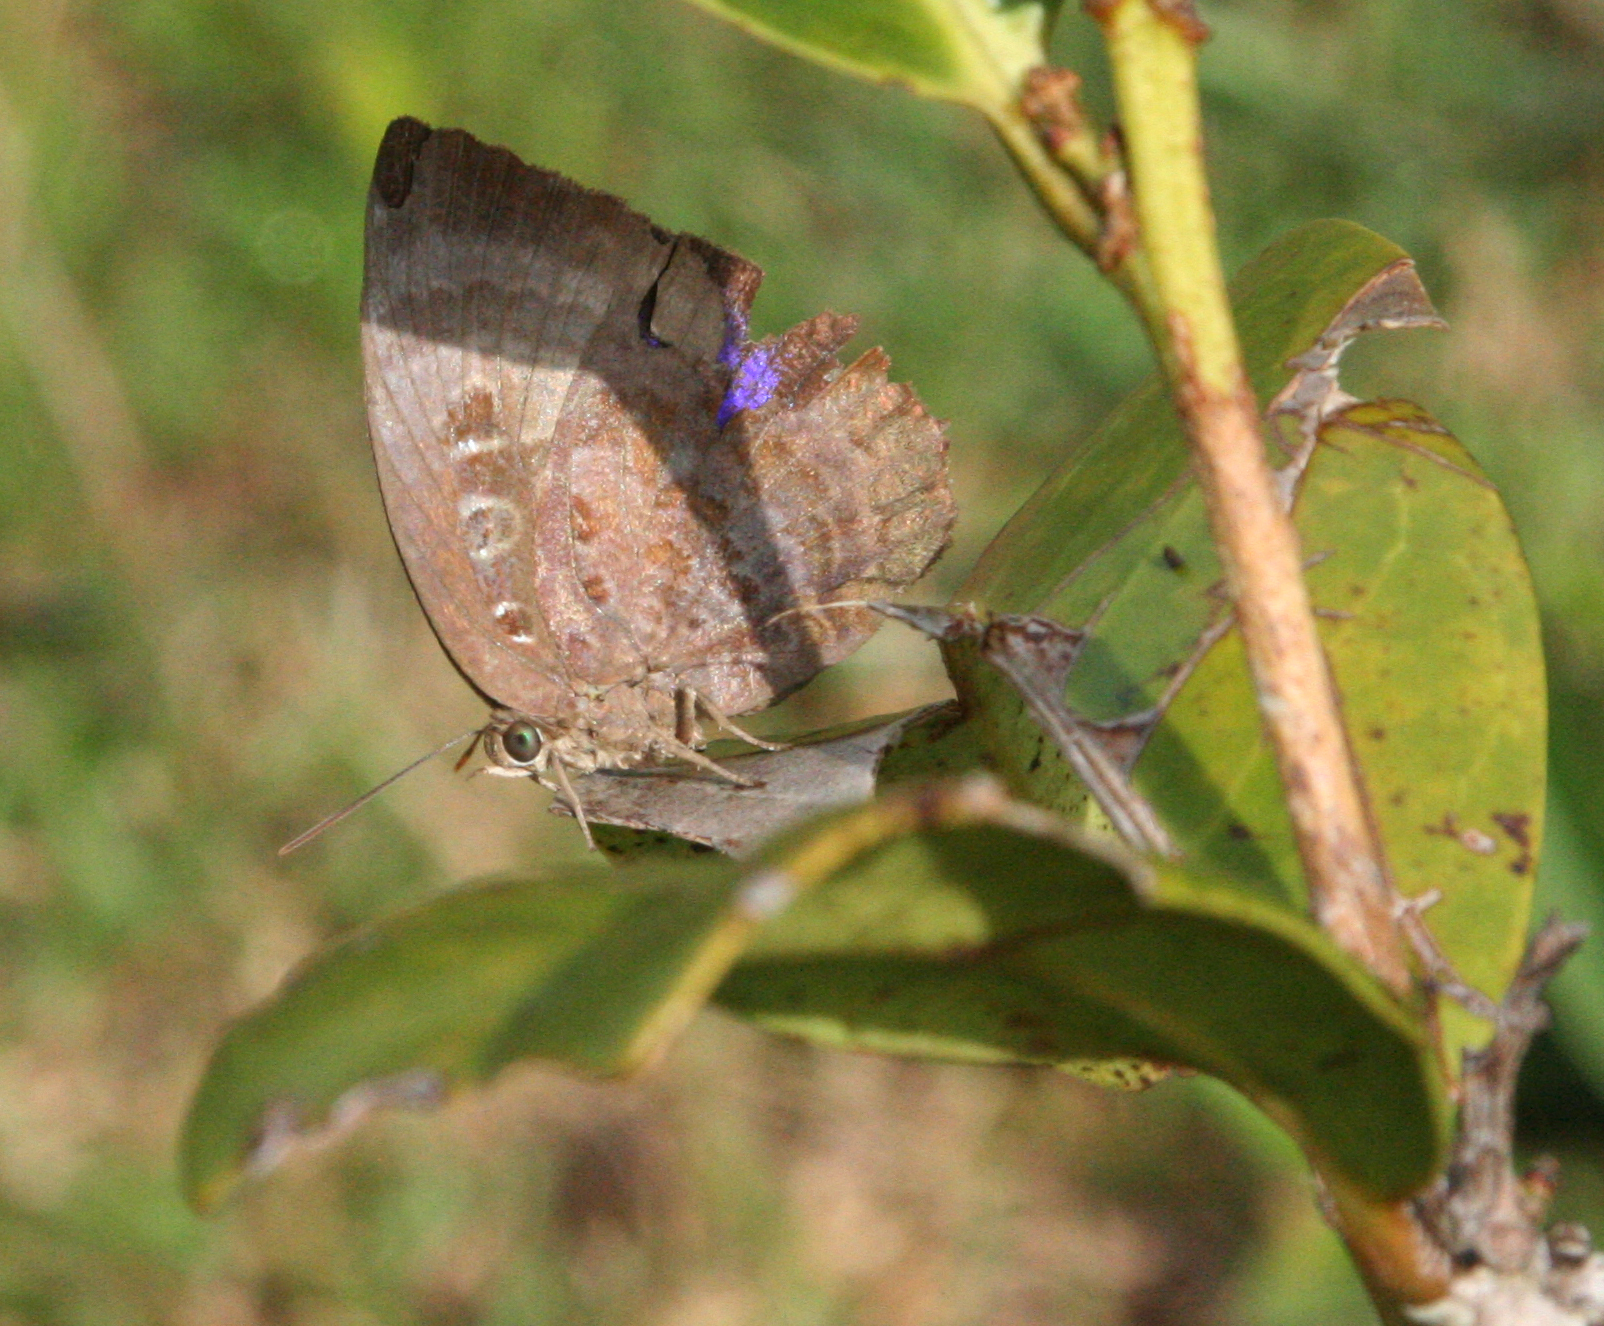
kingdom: Animalia
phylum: Arthropoda
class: Insecta
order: Lepidoptera
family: Lycaenidae
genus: Arhopala
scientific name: Arhopala centaurus
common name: Dull oak-blue
